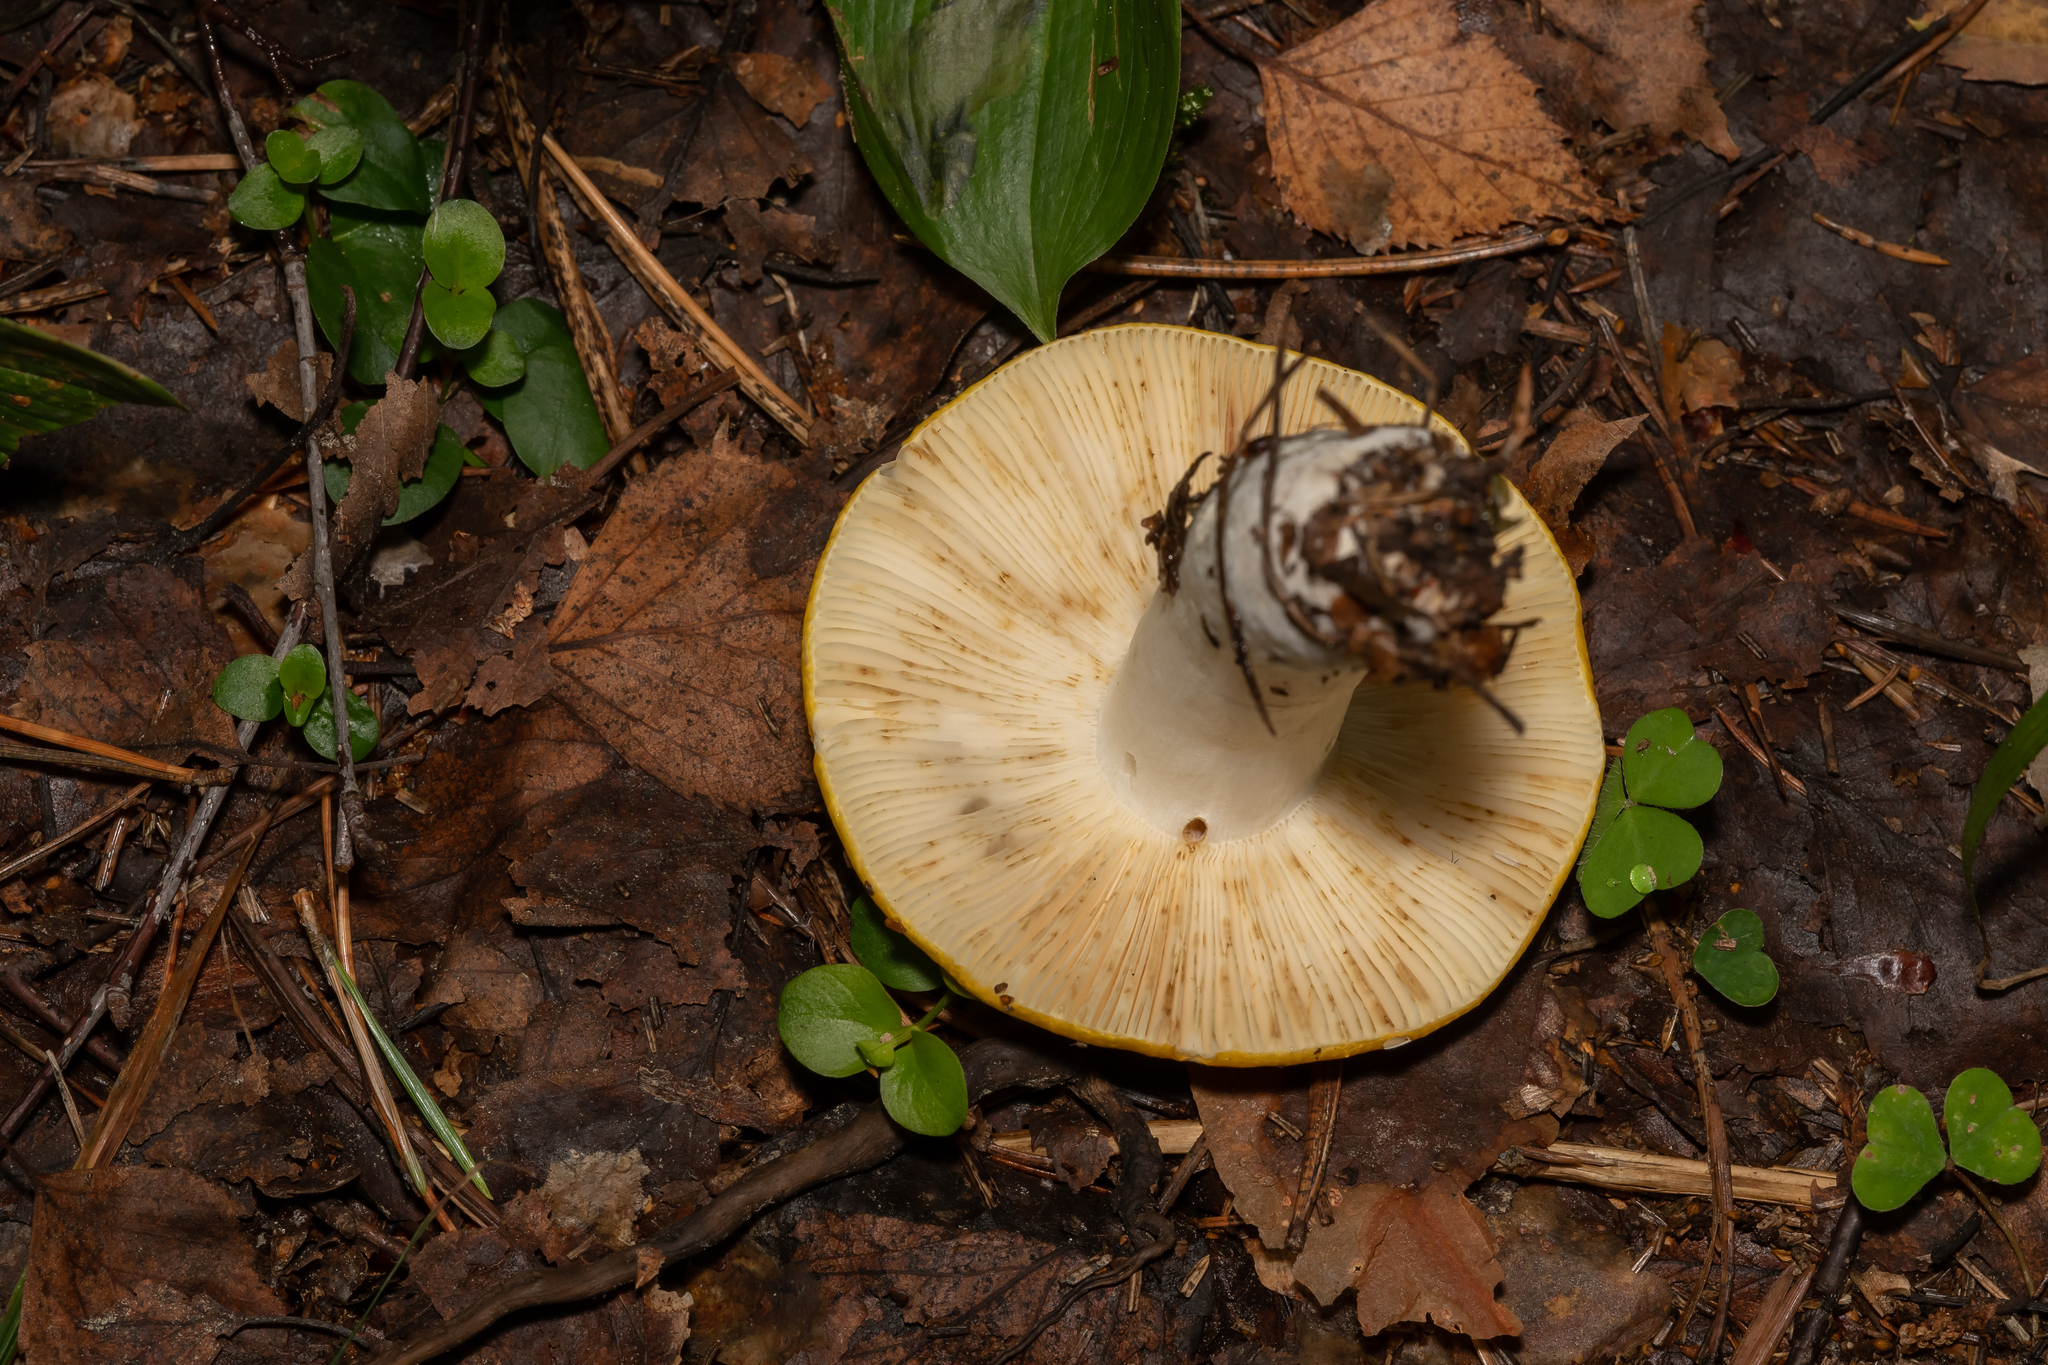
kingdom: Fungi
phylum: Basidiomycota
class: Agaricomycetes
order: Russulales
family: Russulaceae
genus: Russula
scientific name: Russula claroflava
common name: The yellow swamp brittlegill
